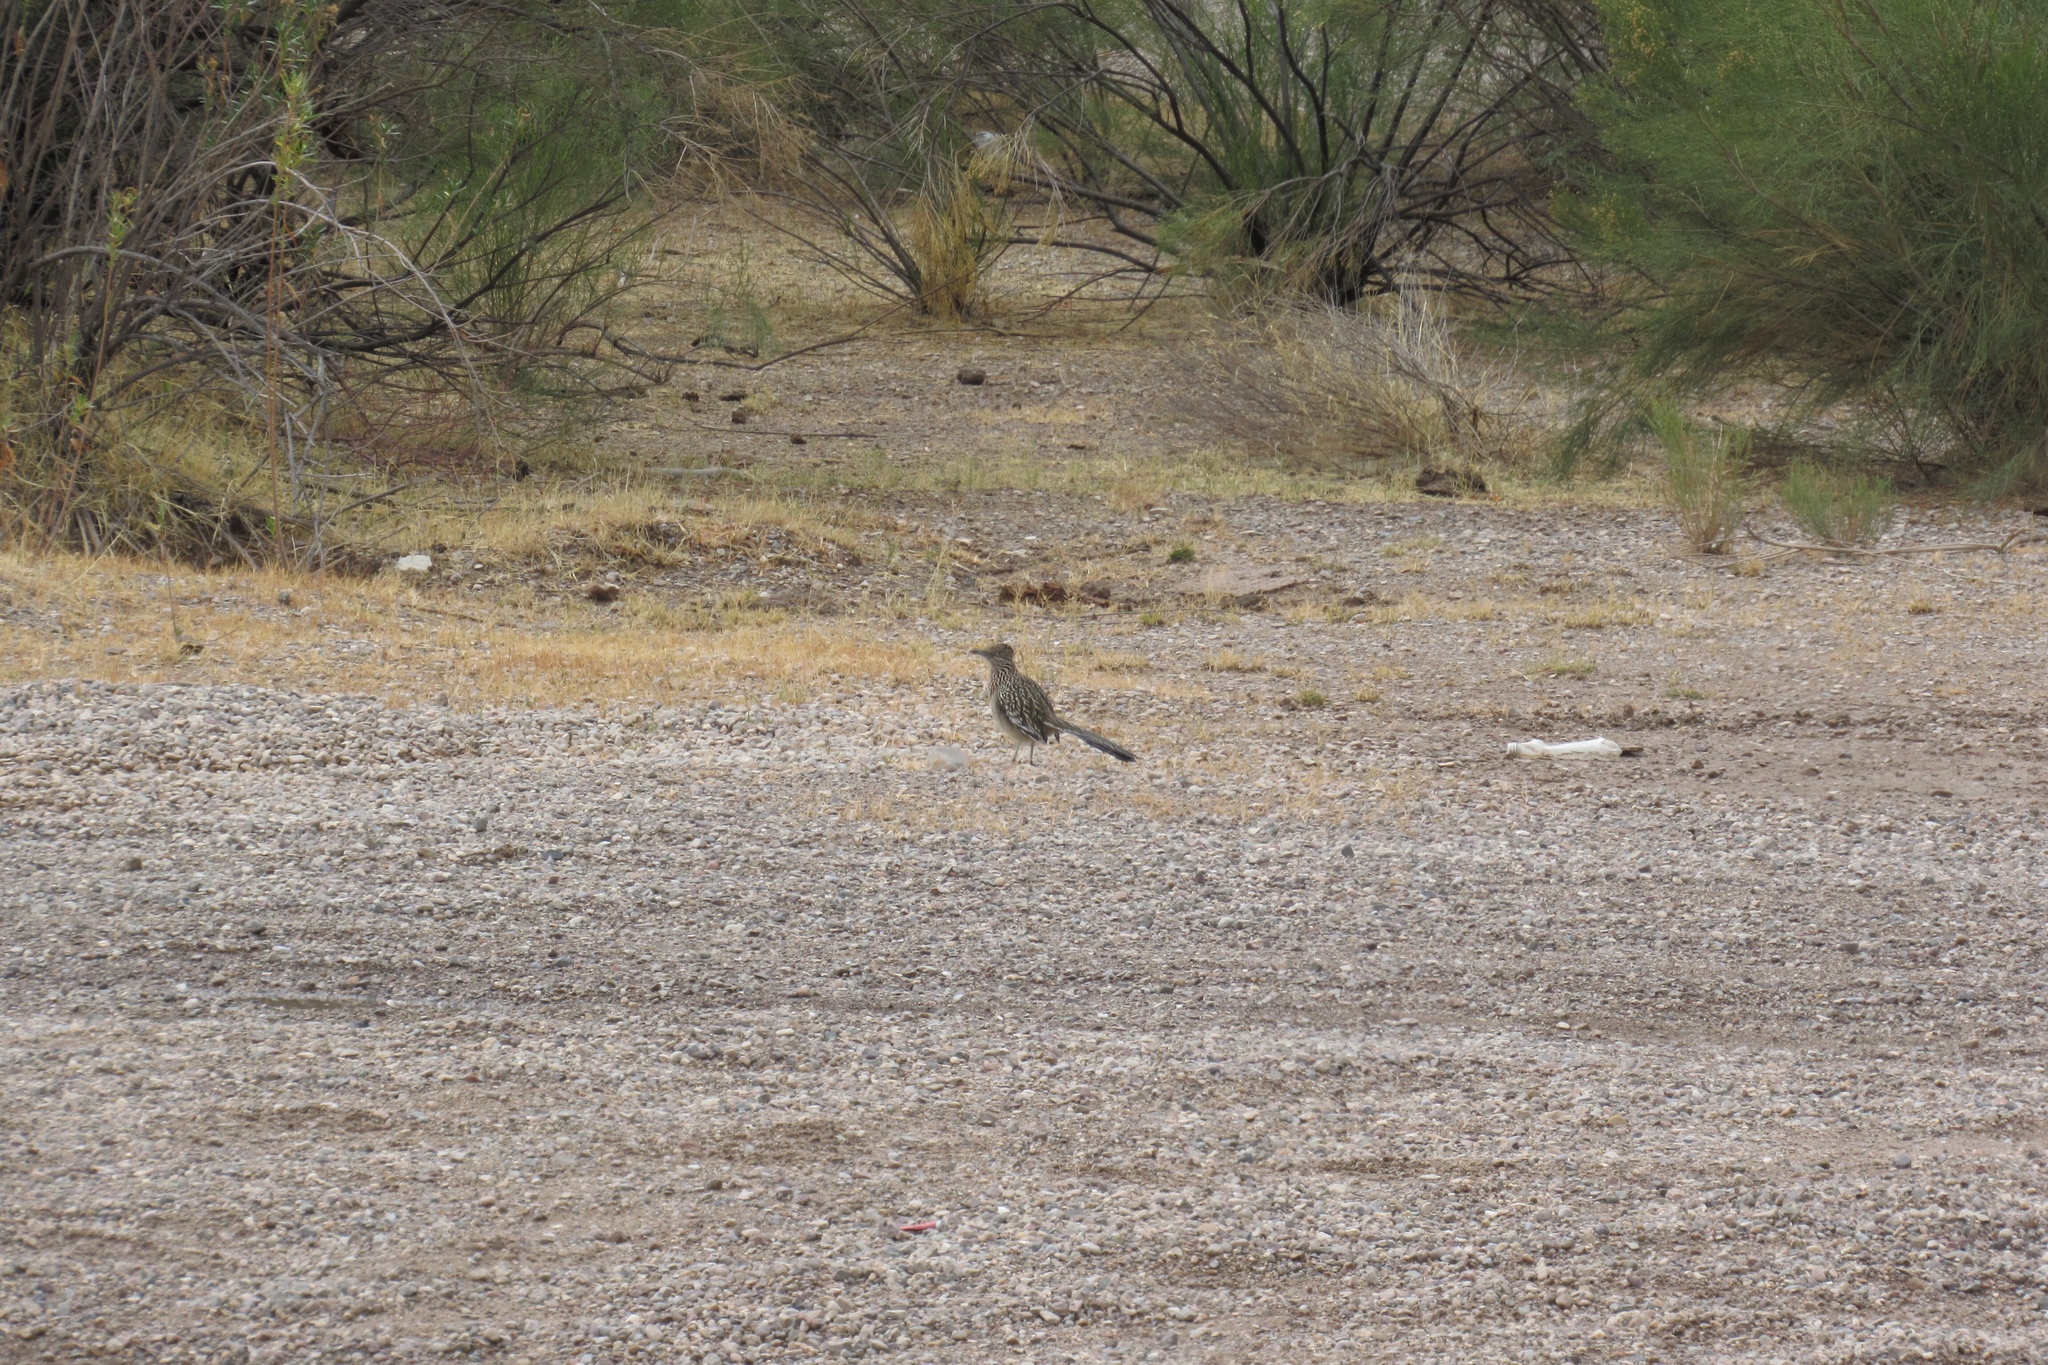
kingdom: Animalia
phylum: Chordata
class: Aves
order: Cuculiformes
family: Cuculidae
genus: Geococcyx
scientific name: Geococcyx californianus
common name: Greater roadrunner
